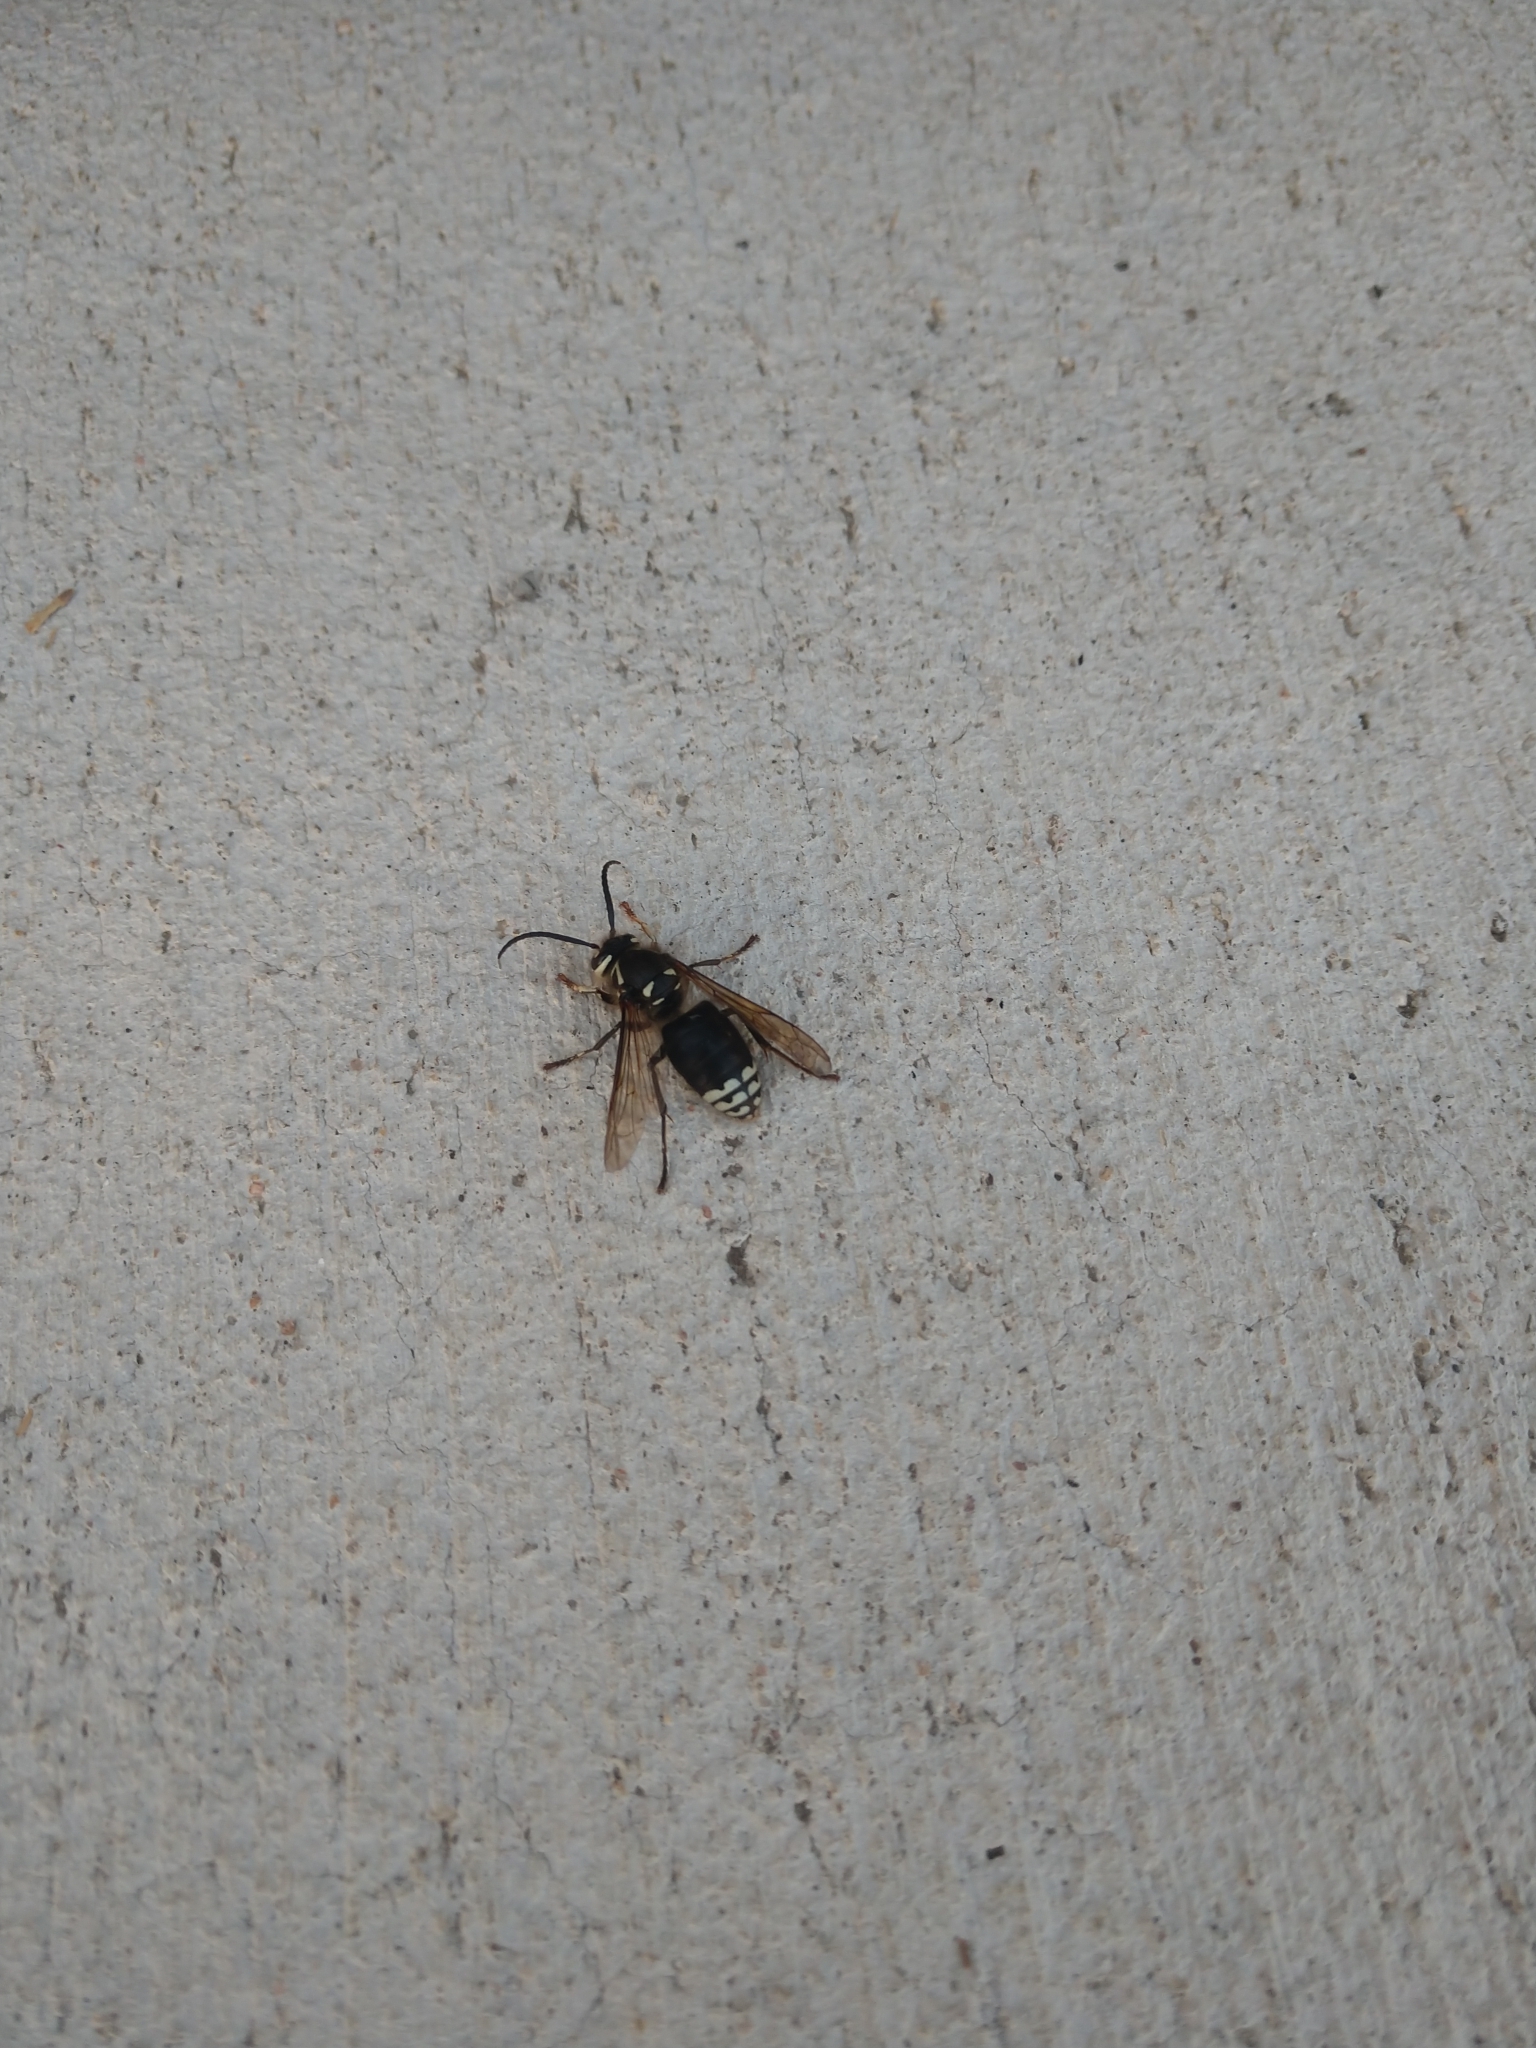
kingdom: Animalia
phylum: Arthropoda
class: Insecta
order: Hymenoptera
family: Vespidae
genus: Dolichovespula
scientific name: Dolichovespula maculata
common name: Bald-faced hornet
